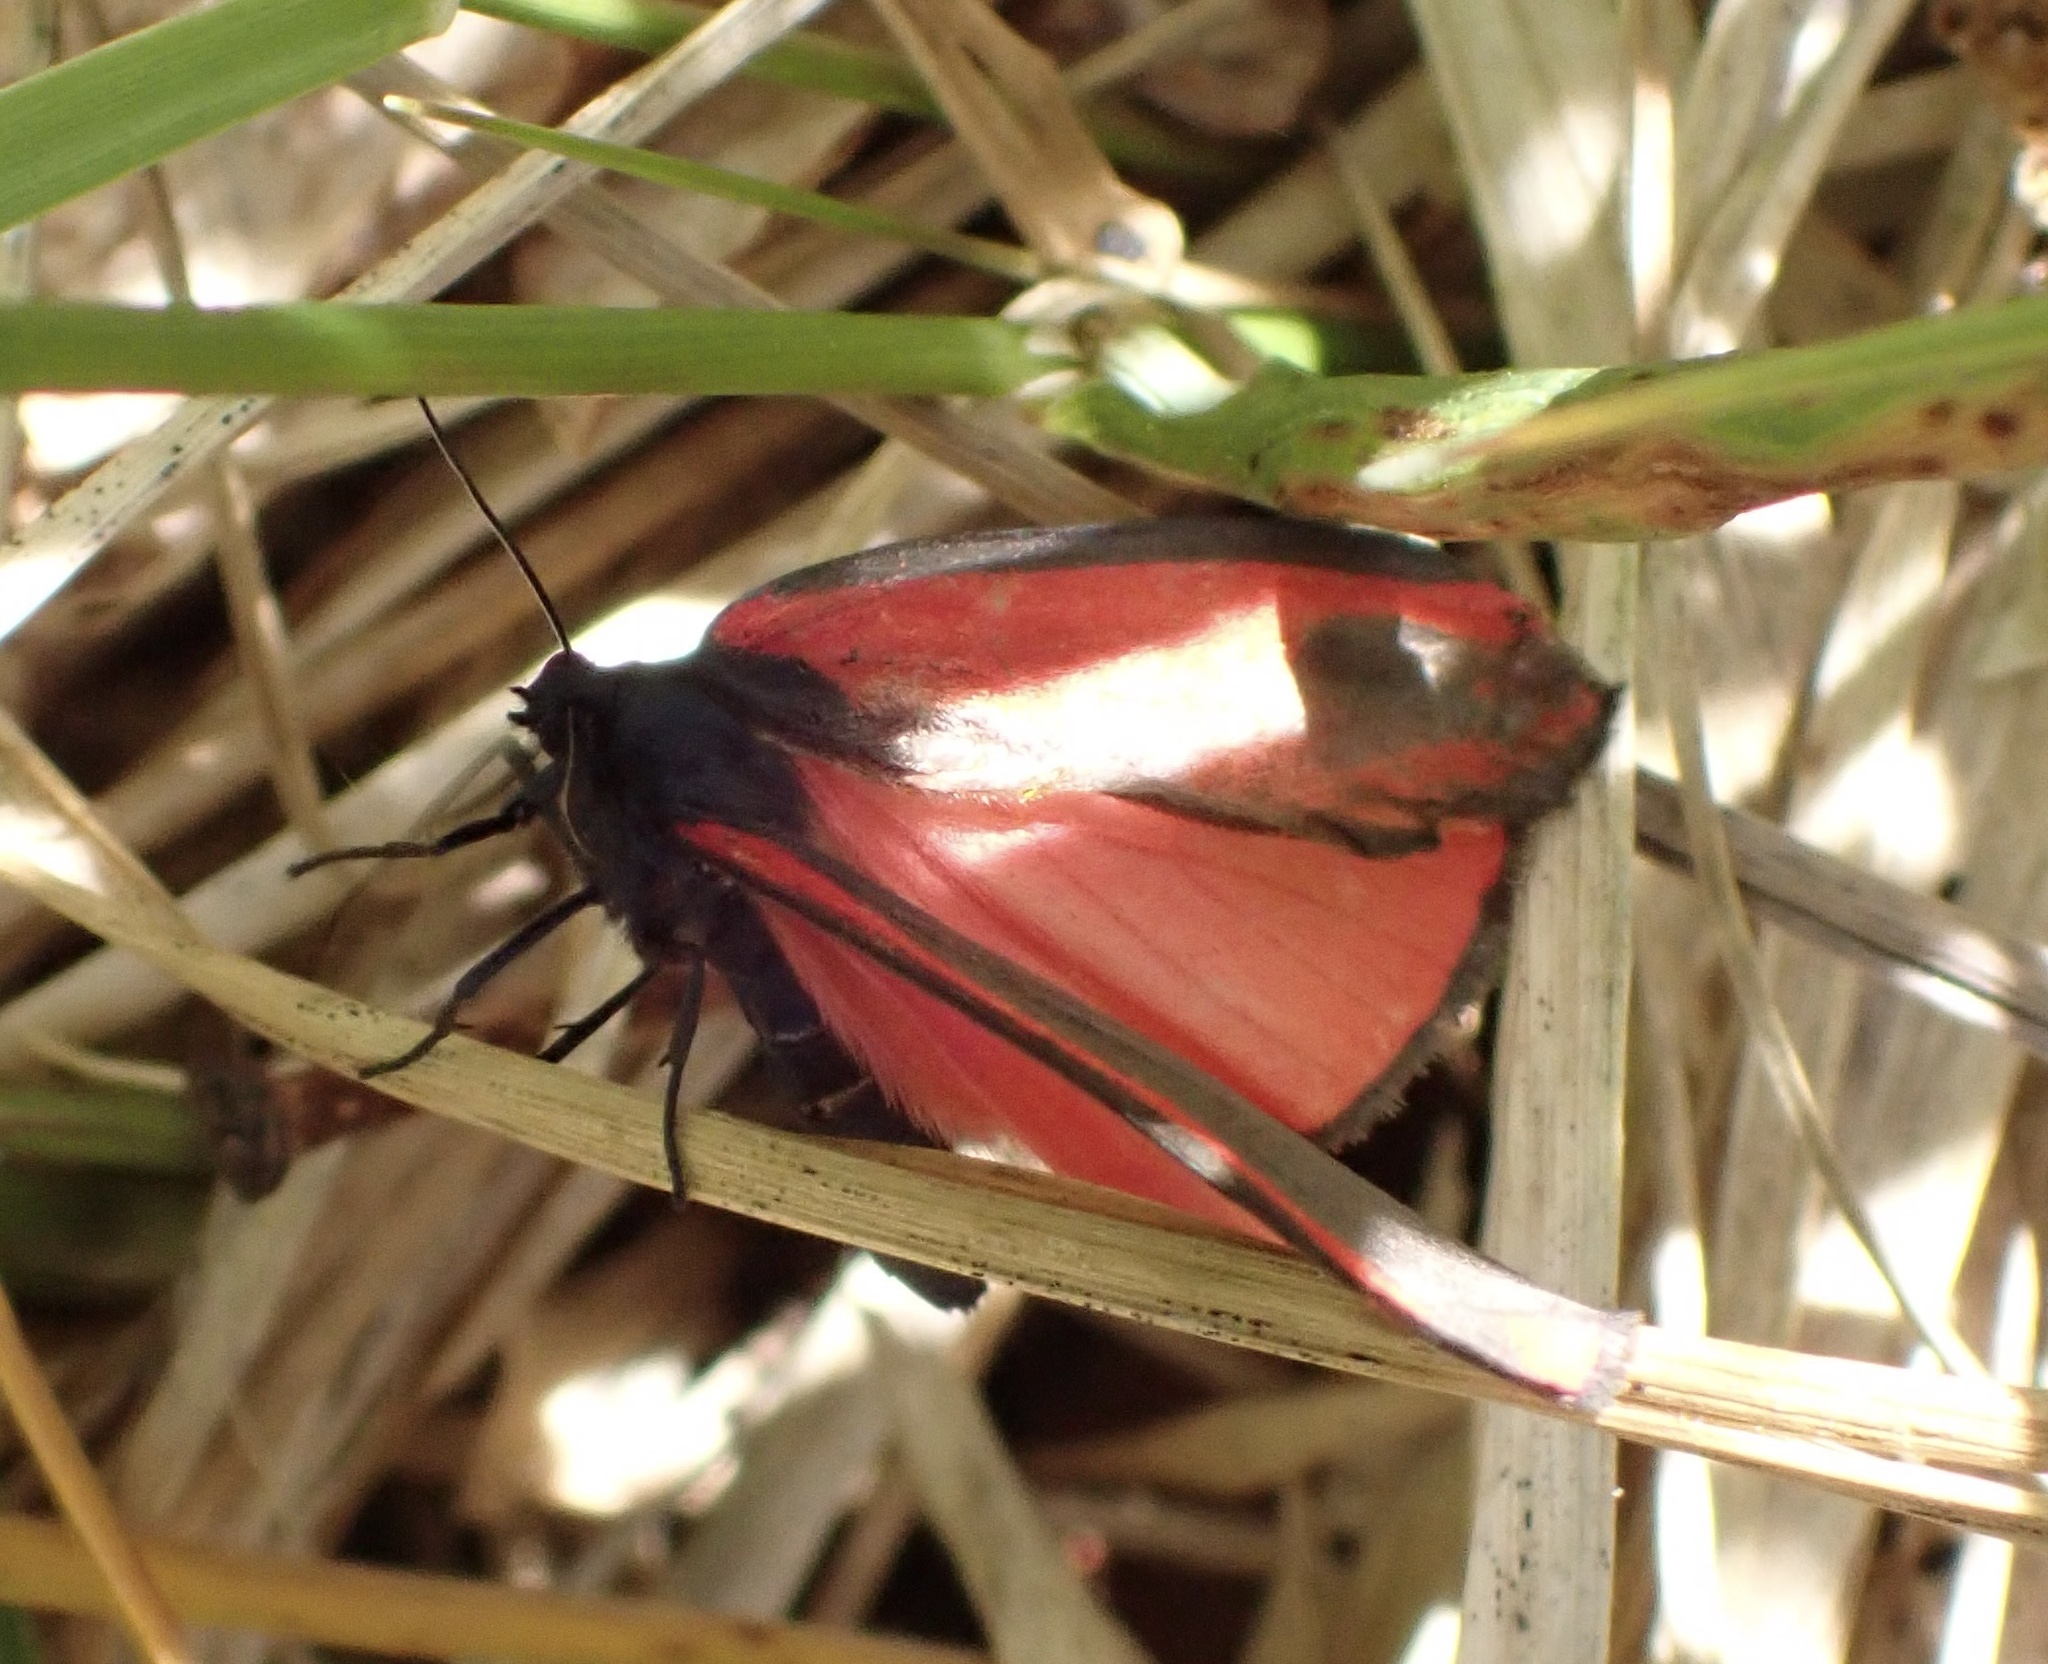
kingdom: Animalia
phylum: Arthropoda
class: Insecta
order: Lepidoptera
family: Erebidae
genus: Tyria
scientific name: Tyria jacobaeae
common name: Cinnabar
